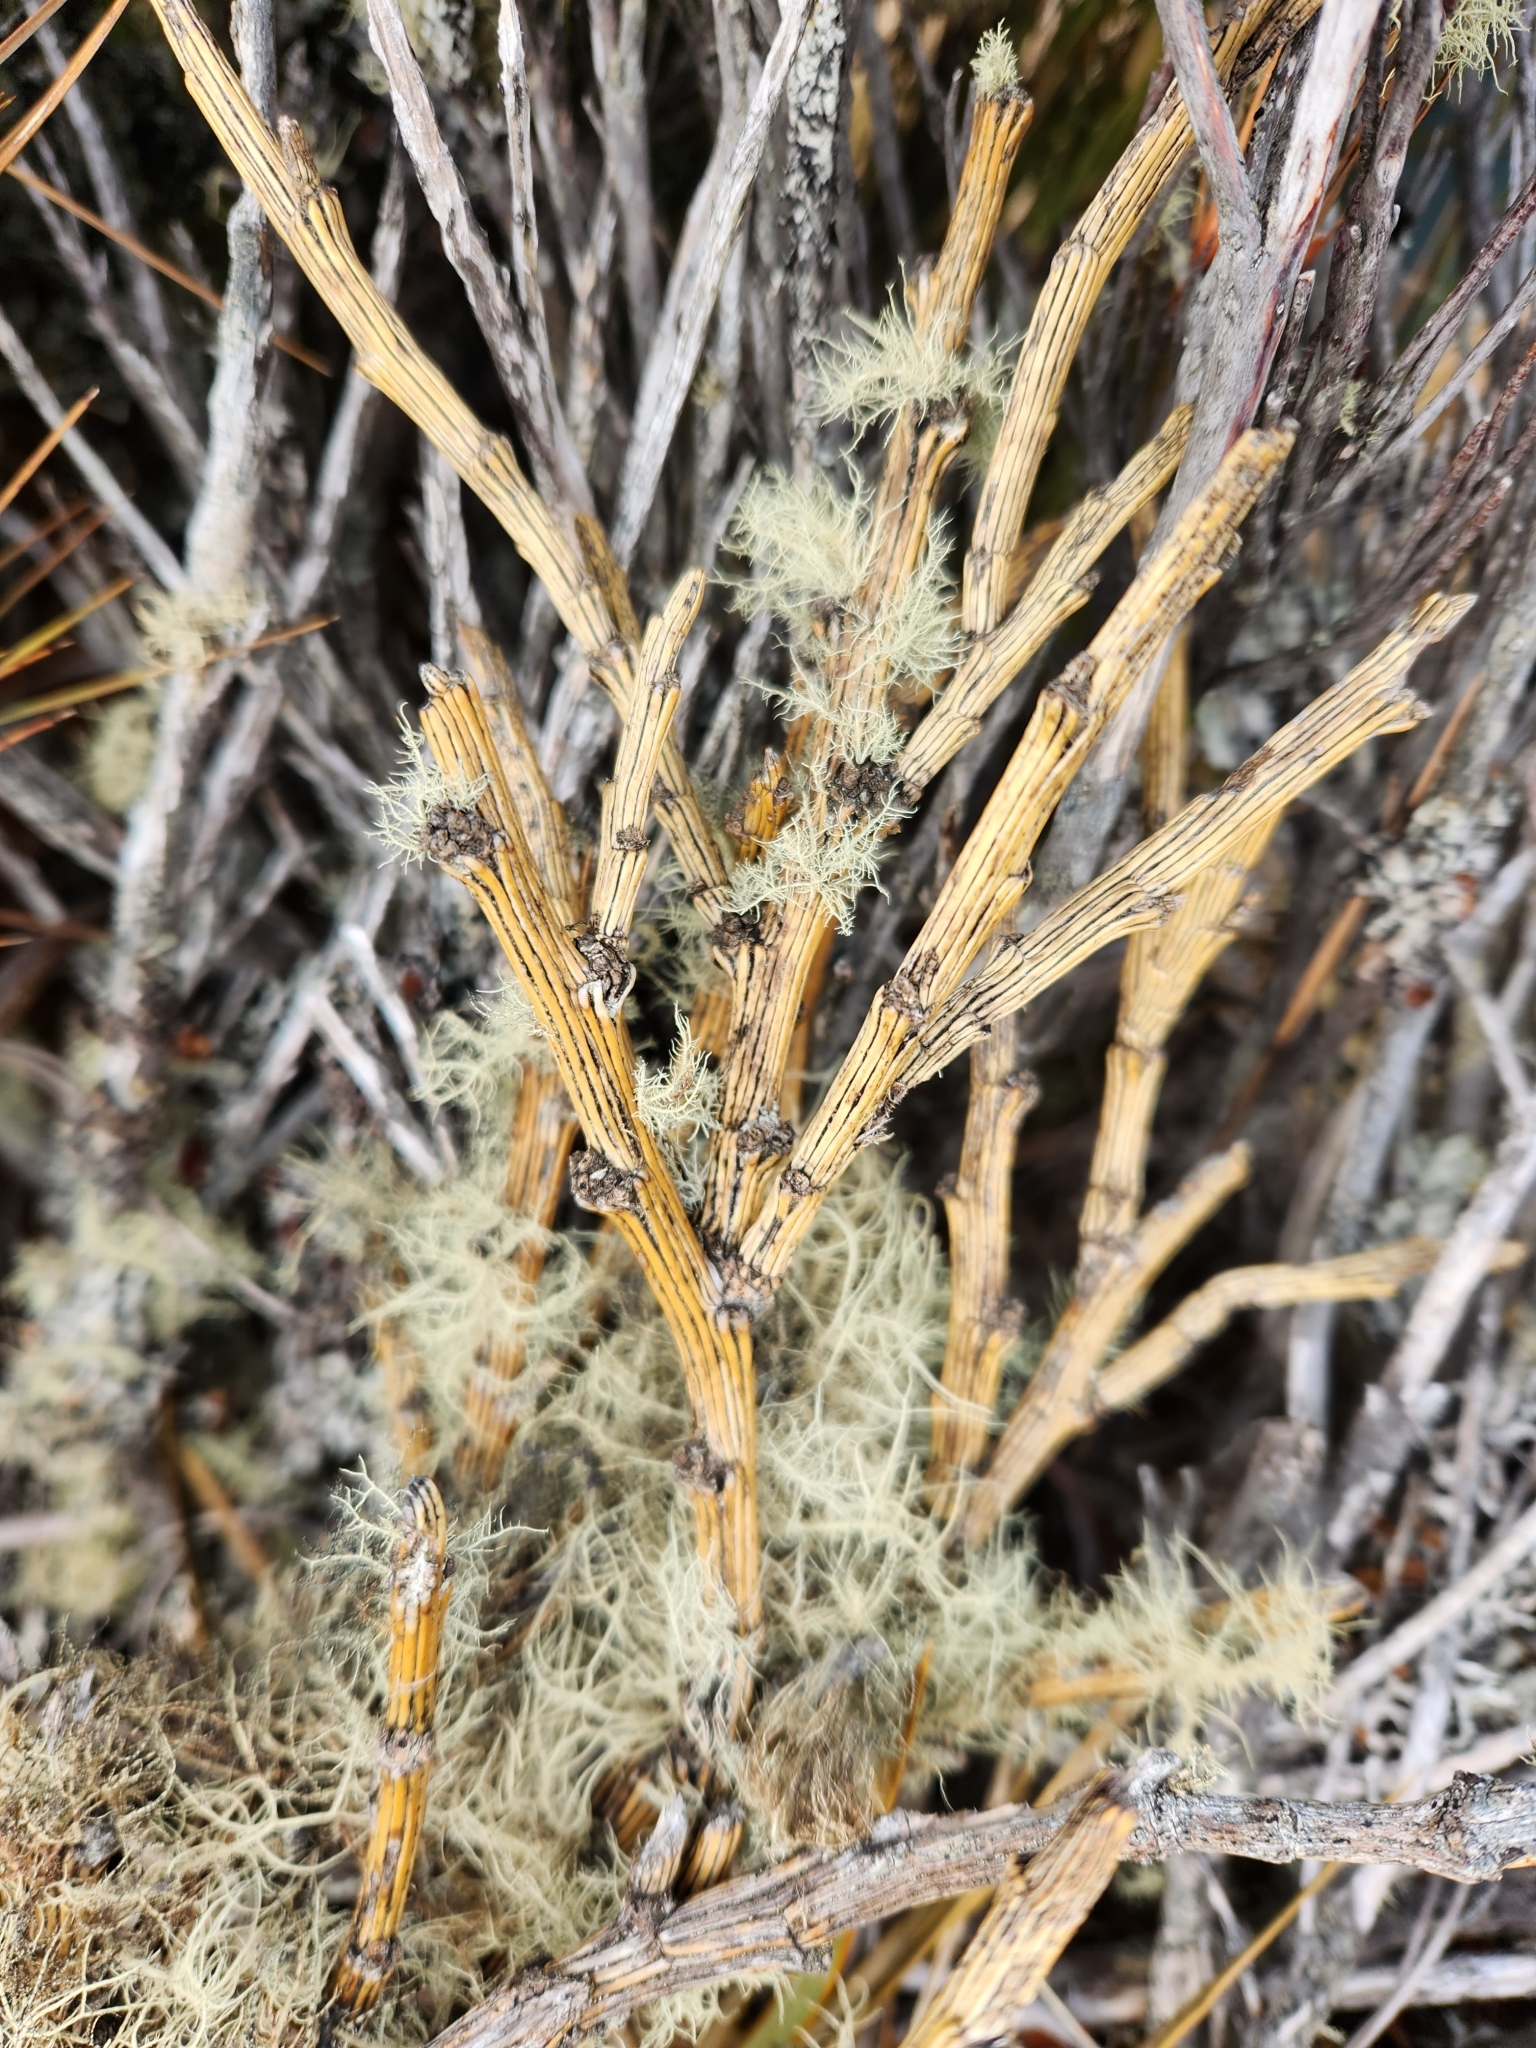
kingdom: Plantae
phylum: Tracheophyta
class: Magnoliopsida
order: Fabales
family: Fabaceae
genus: Carmichaelia
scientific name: Carmichaelia crassicaulis
